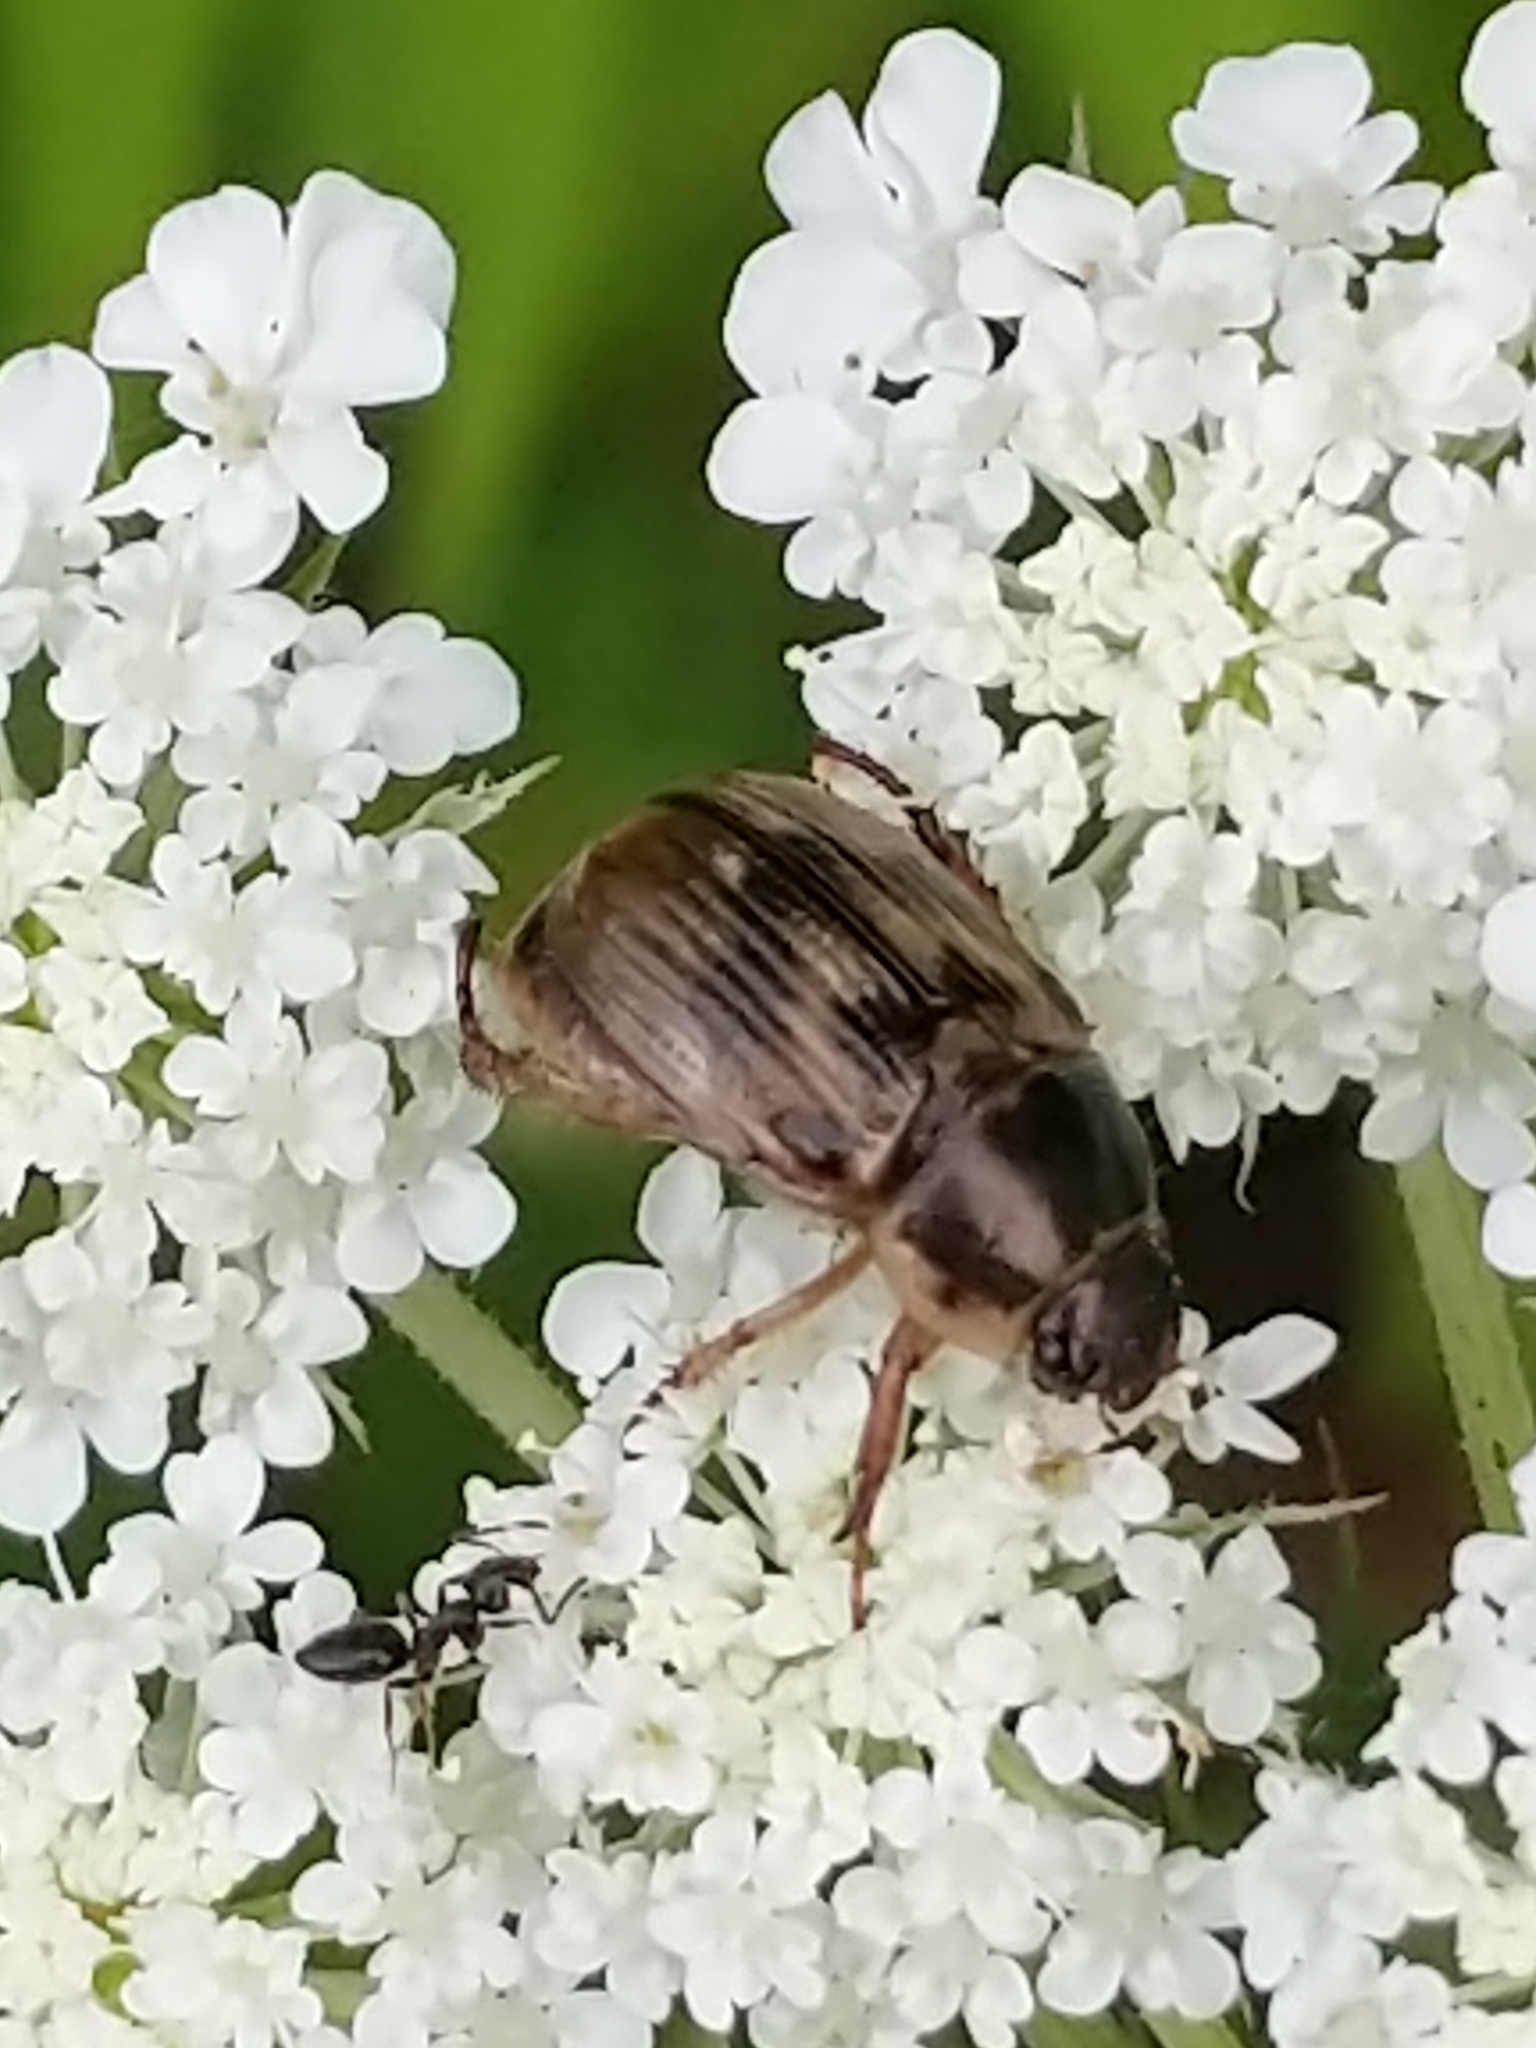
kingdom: Animalia
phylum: Arthropoda
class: Insecta
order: Coleoptera
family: Scarabaeidae
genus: Exomala
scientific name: Exomala orientalis
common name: Oriental beetle
